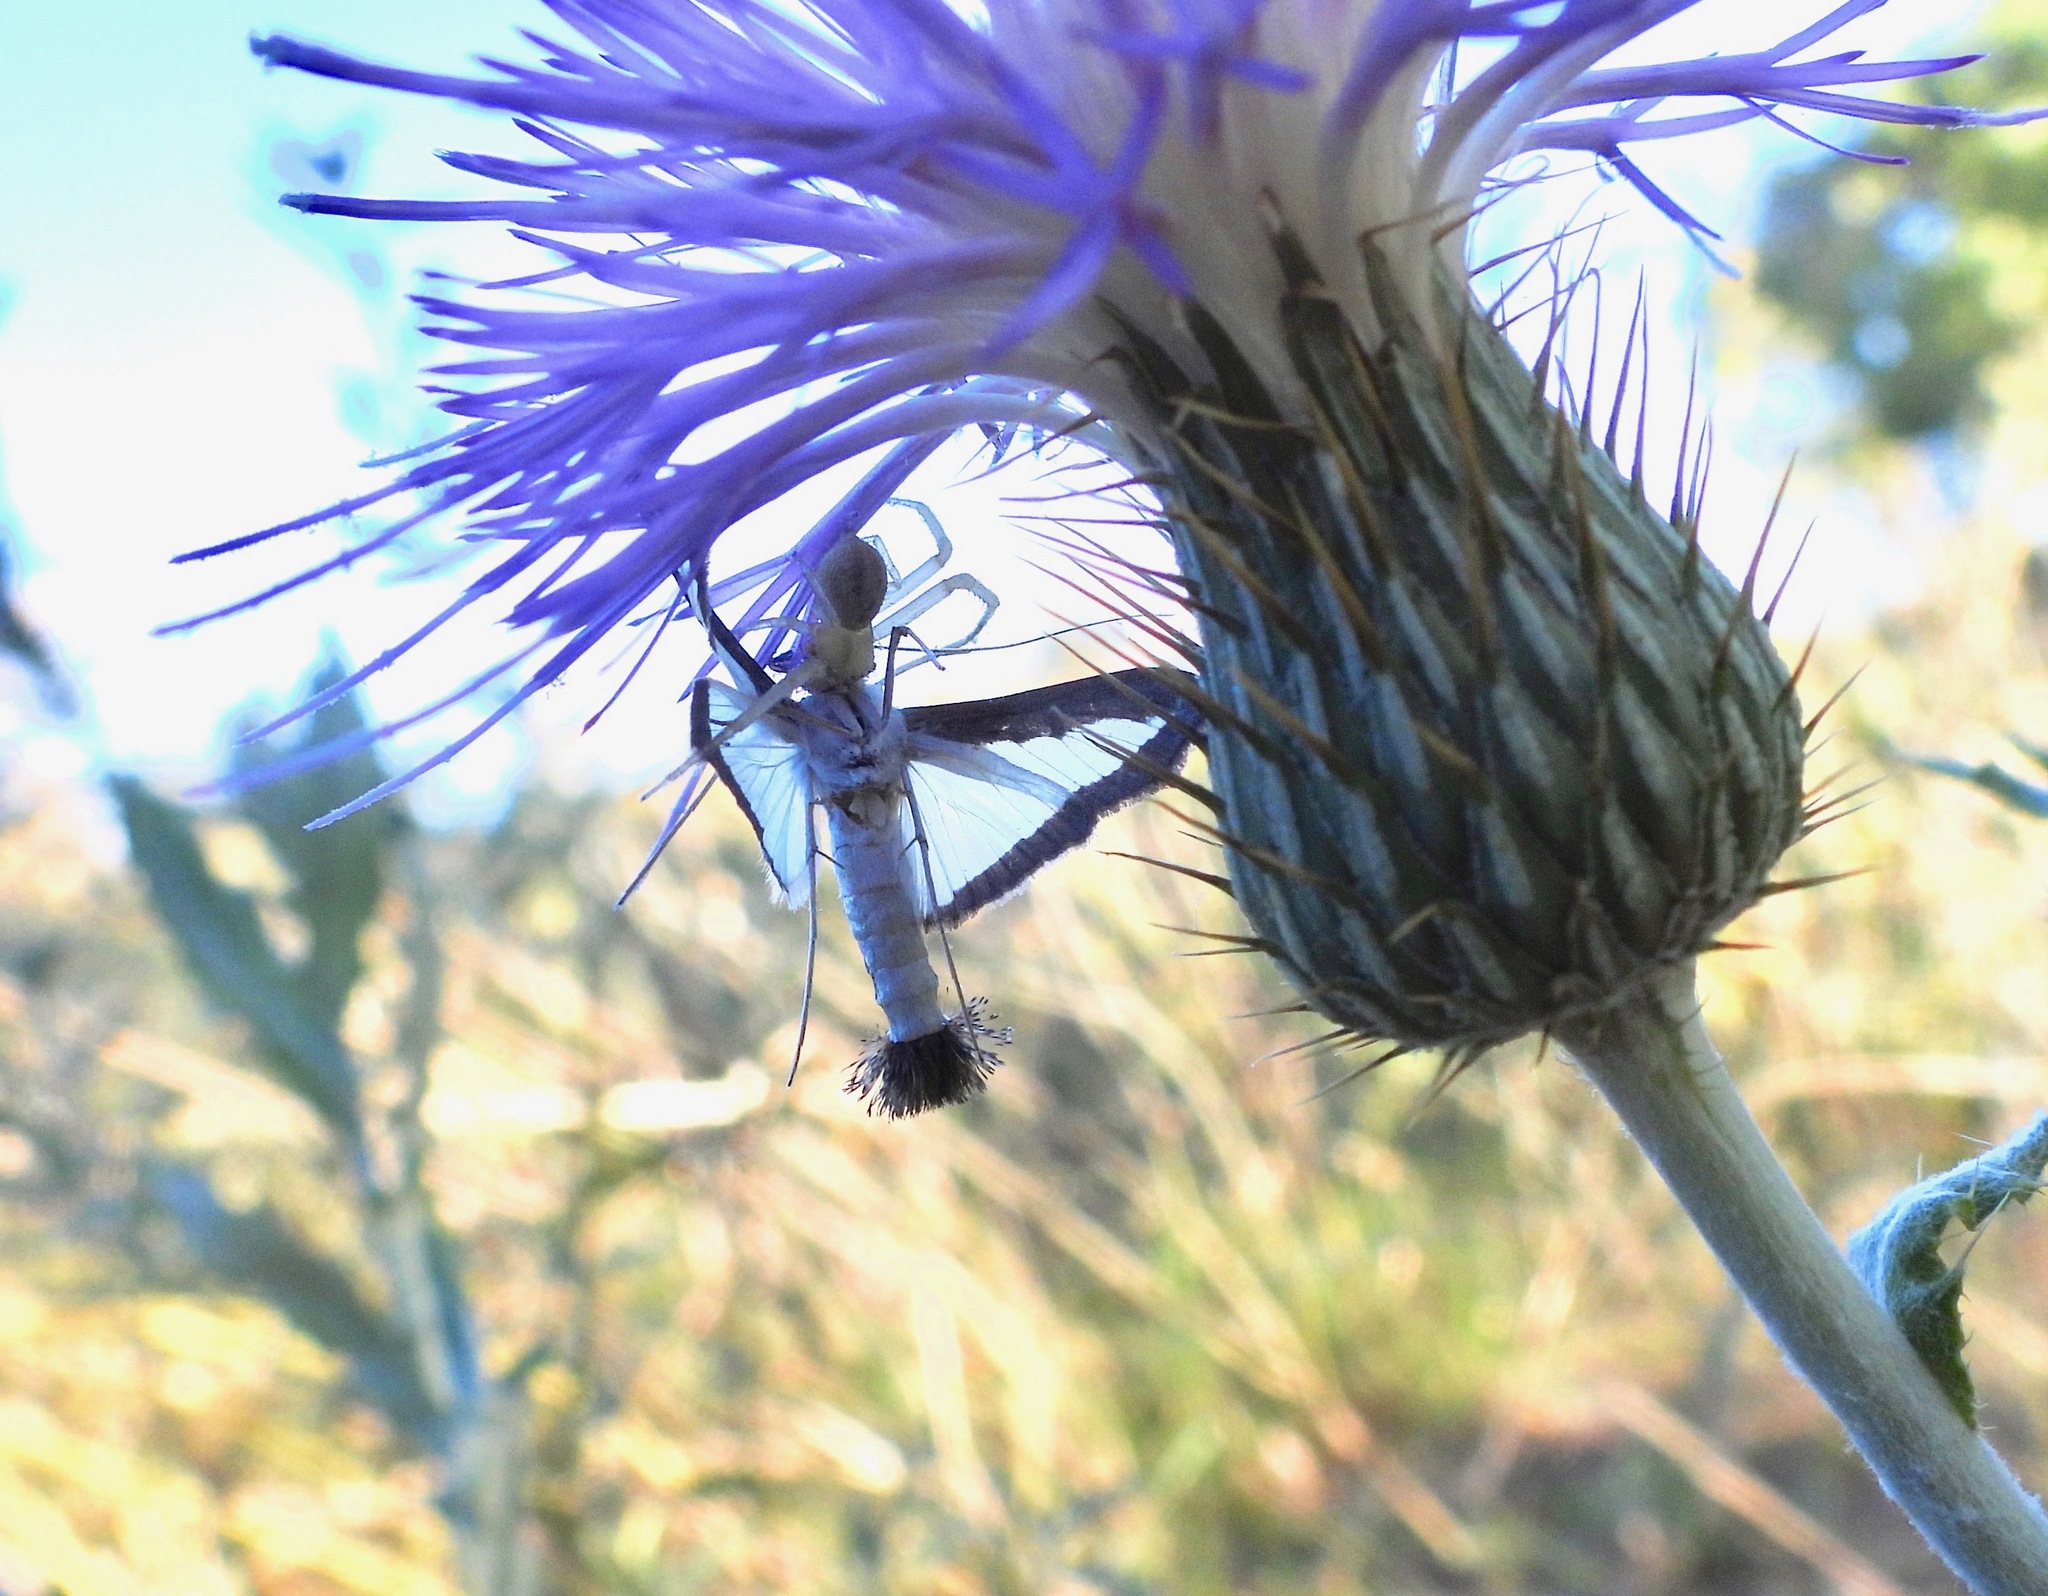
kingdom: Animalia
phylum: Arthropoda
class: Insecta
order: Lepidoptera
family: Crambidae
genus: Diaphania
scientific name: Diaphania hyalinata
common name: Melonworm
